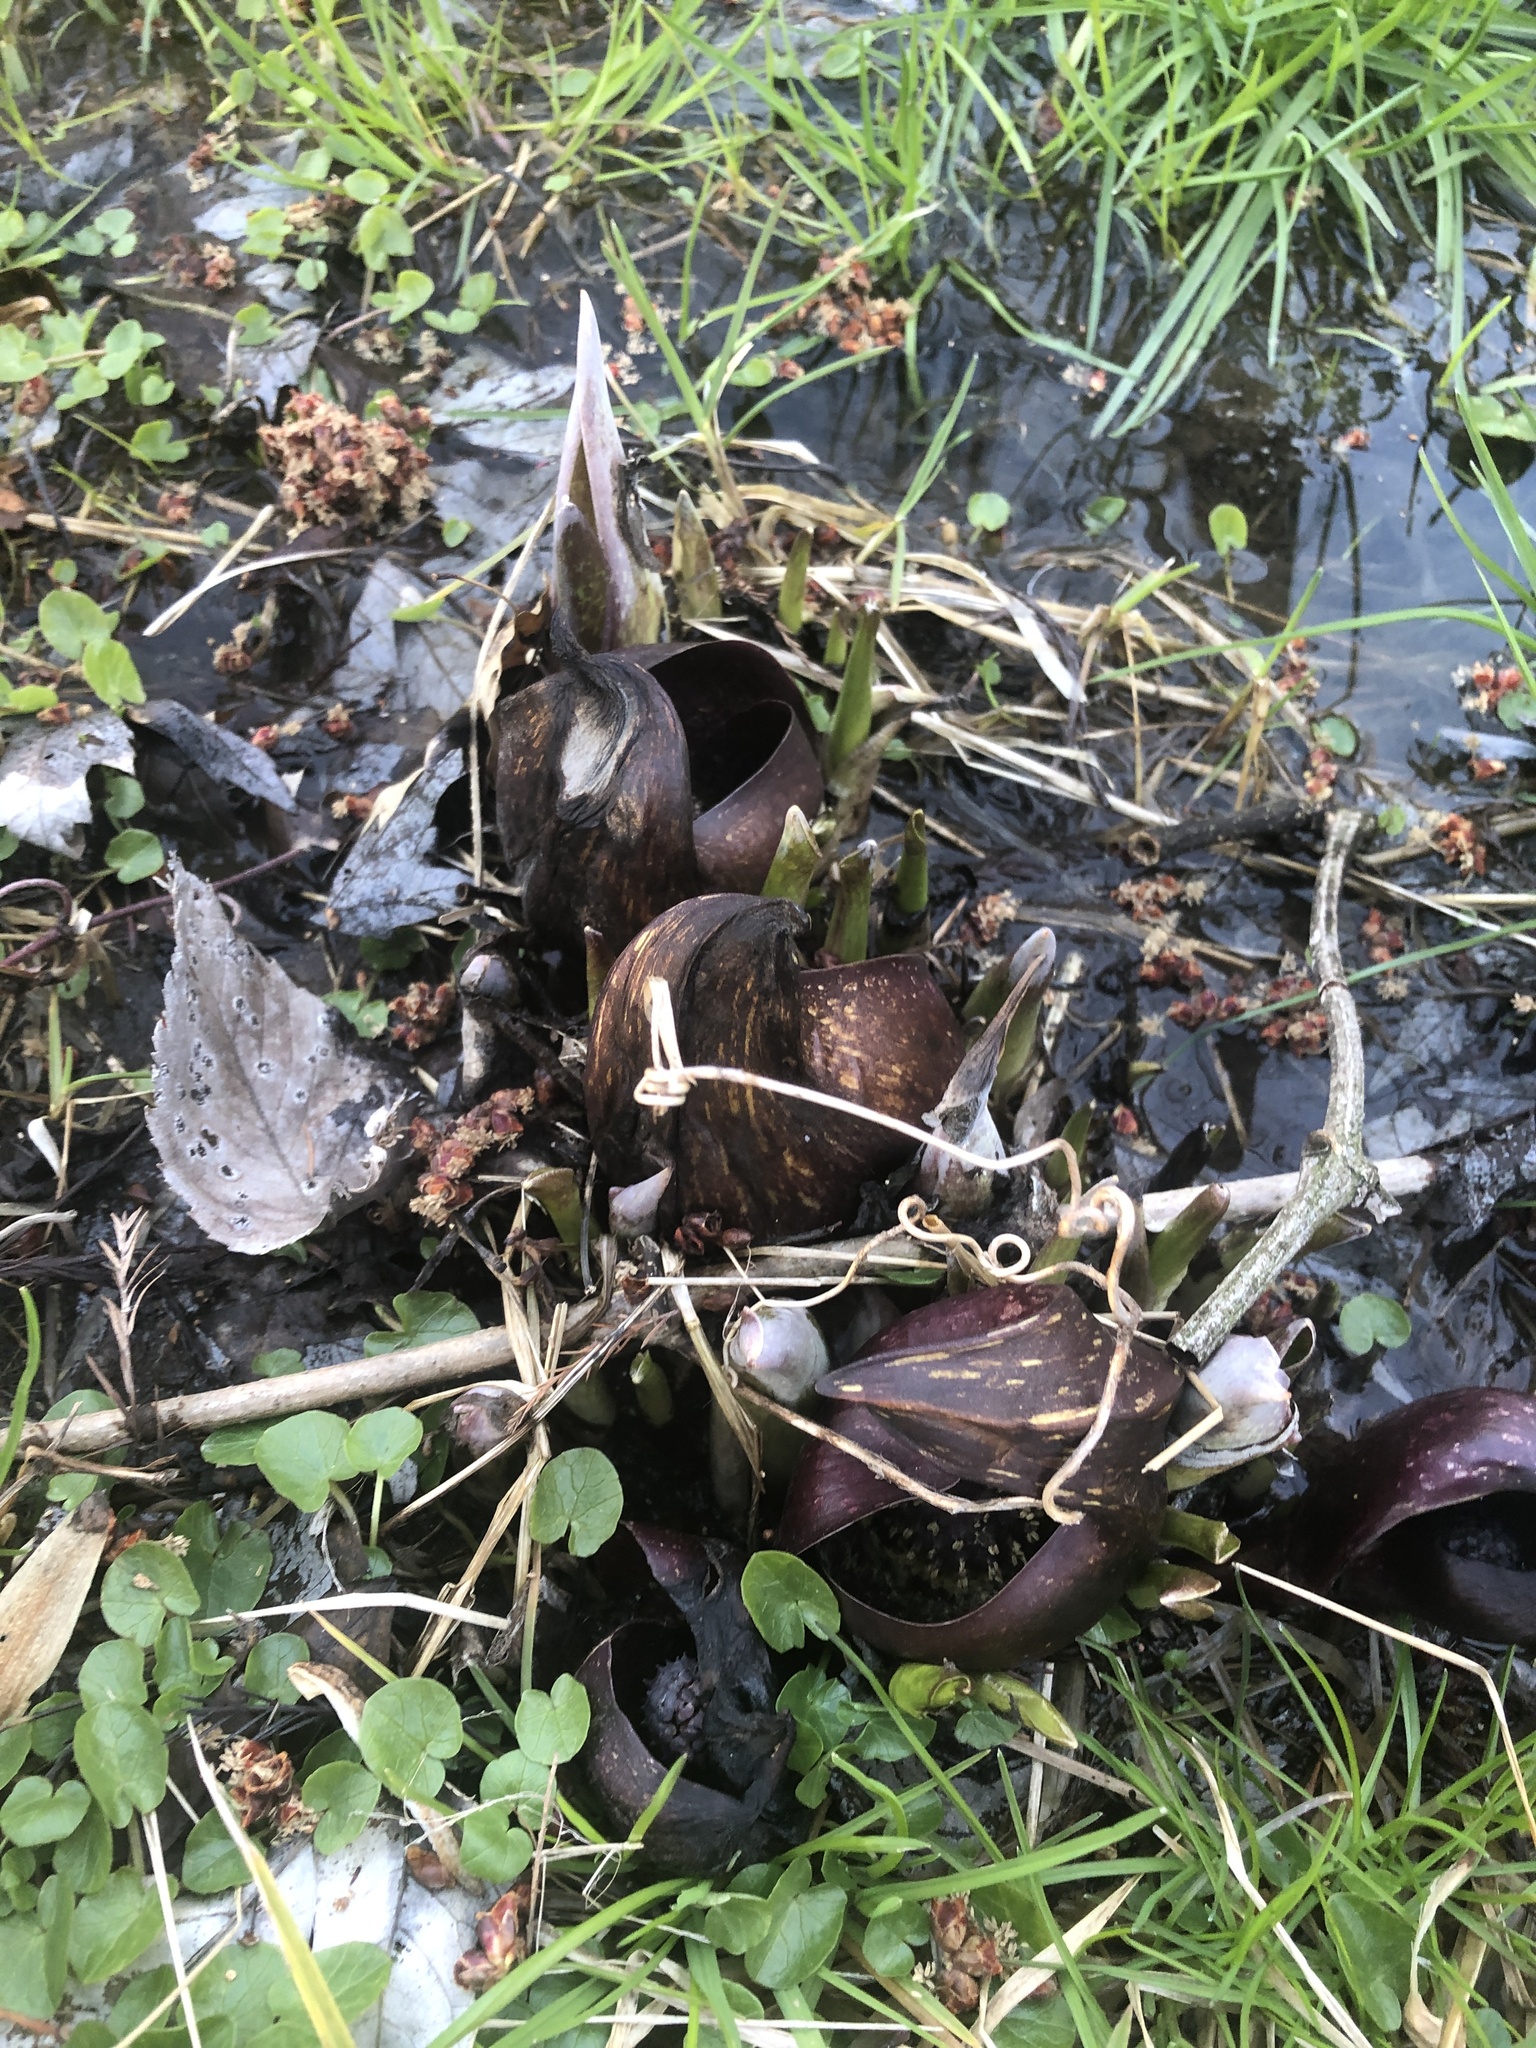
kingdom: Plantae
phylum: Tracheophyta
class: Liliopsida
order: Alismatales
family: Araceae
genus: Symplocarpus
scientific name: Symplocarpus foetidus
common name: Eastern skunk cabbage
